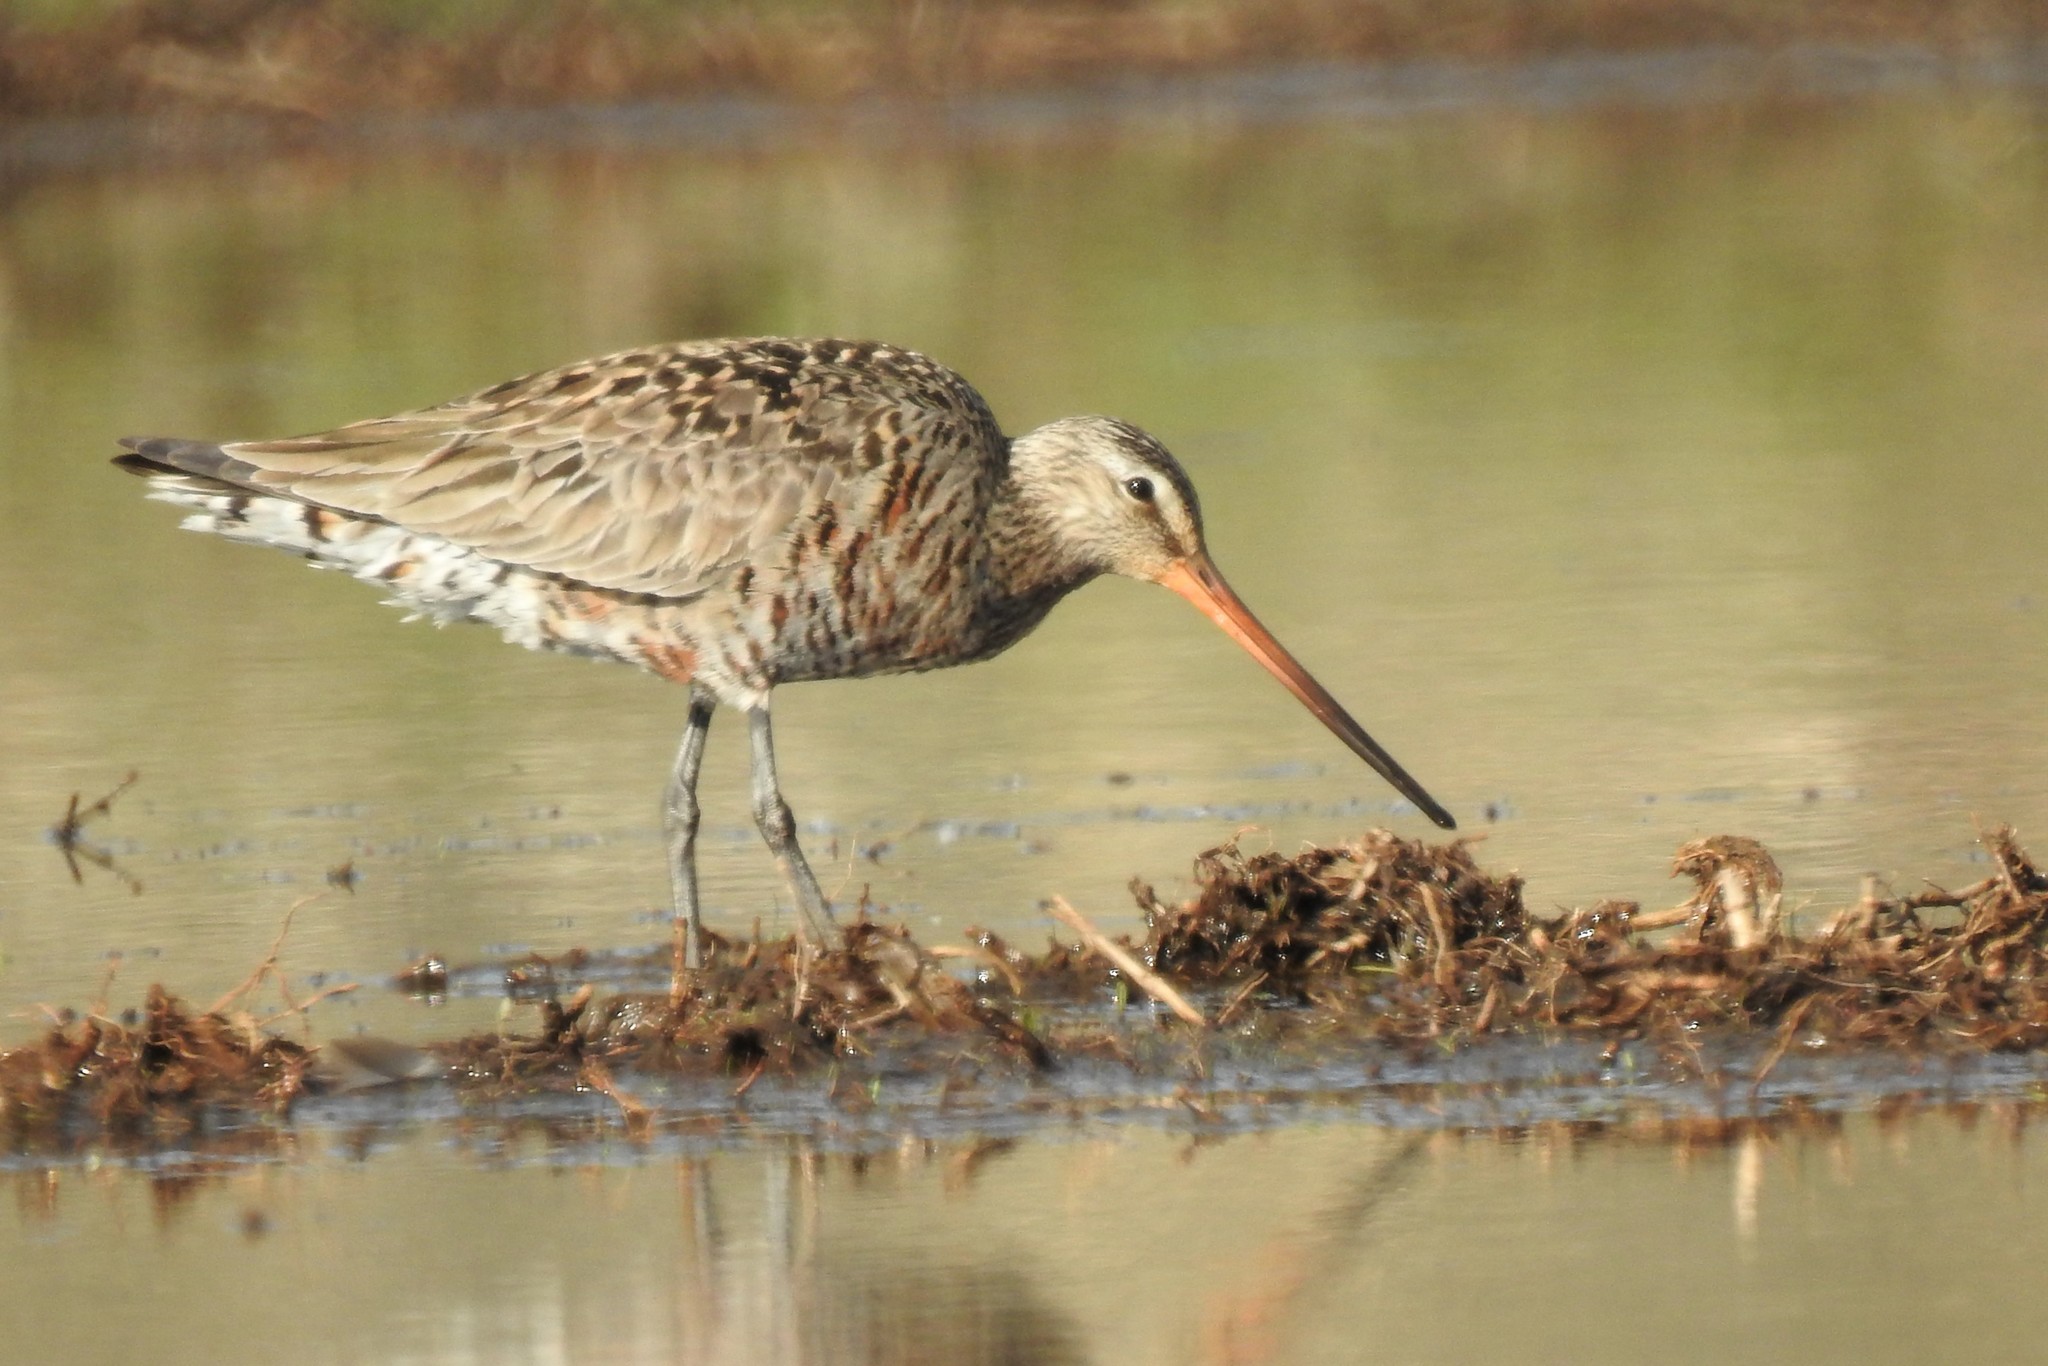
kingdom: Animalia
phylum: Chordata
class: Aves
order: Charadriiformes
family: Scolopacidae
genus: Limosa
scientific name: Limosa haemastica
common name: Hudsonian godwit
